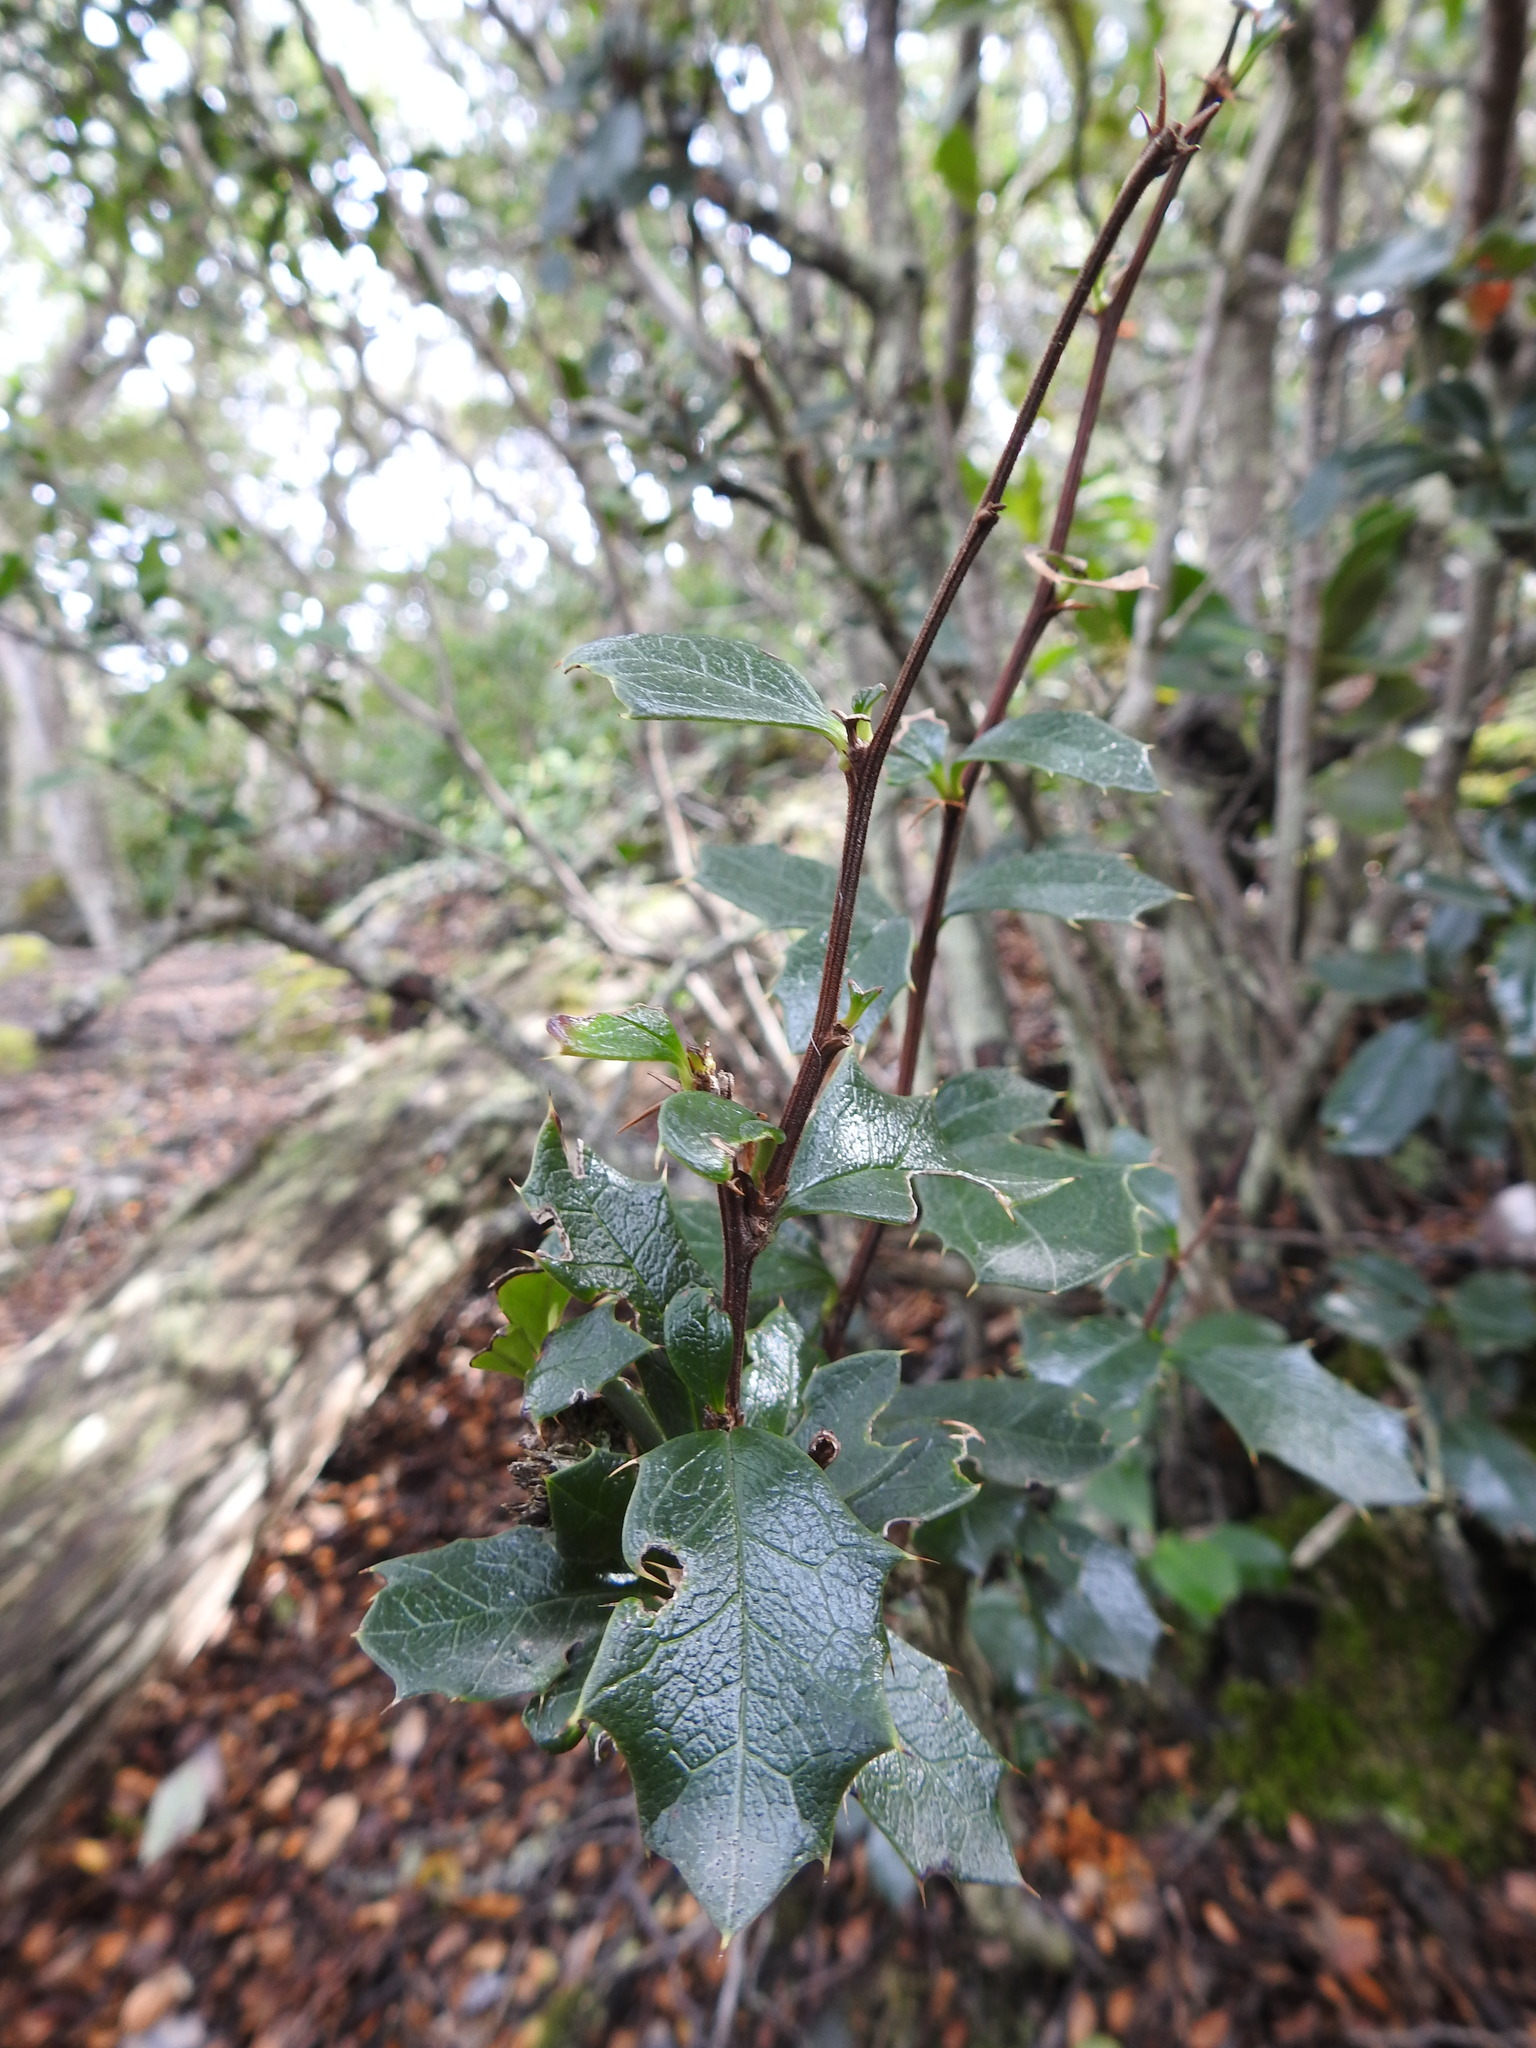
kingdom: Plantae
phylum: Tracheophyta
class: Magnoliopsida
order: Ranunculales
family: Berberidaceae
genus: Berberis
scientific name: Berberis ilicifolia
